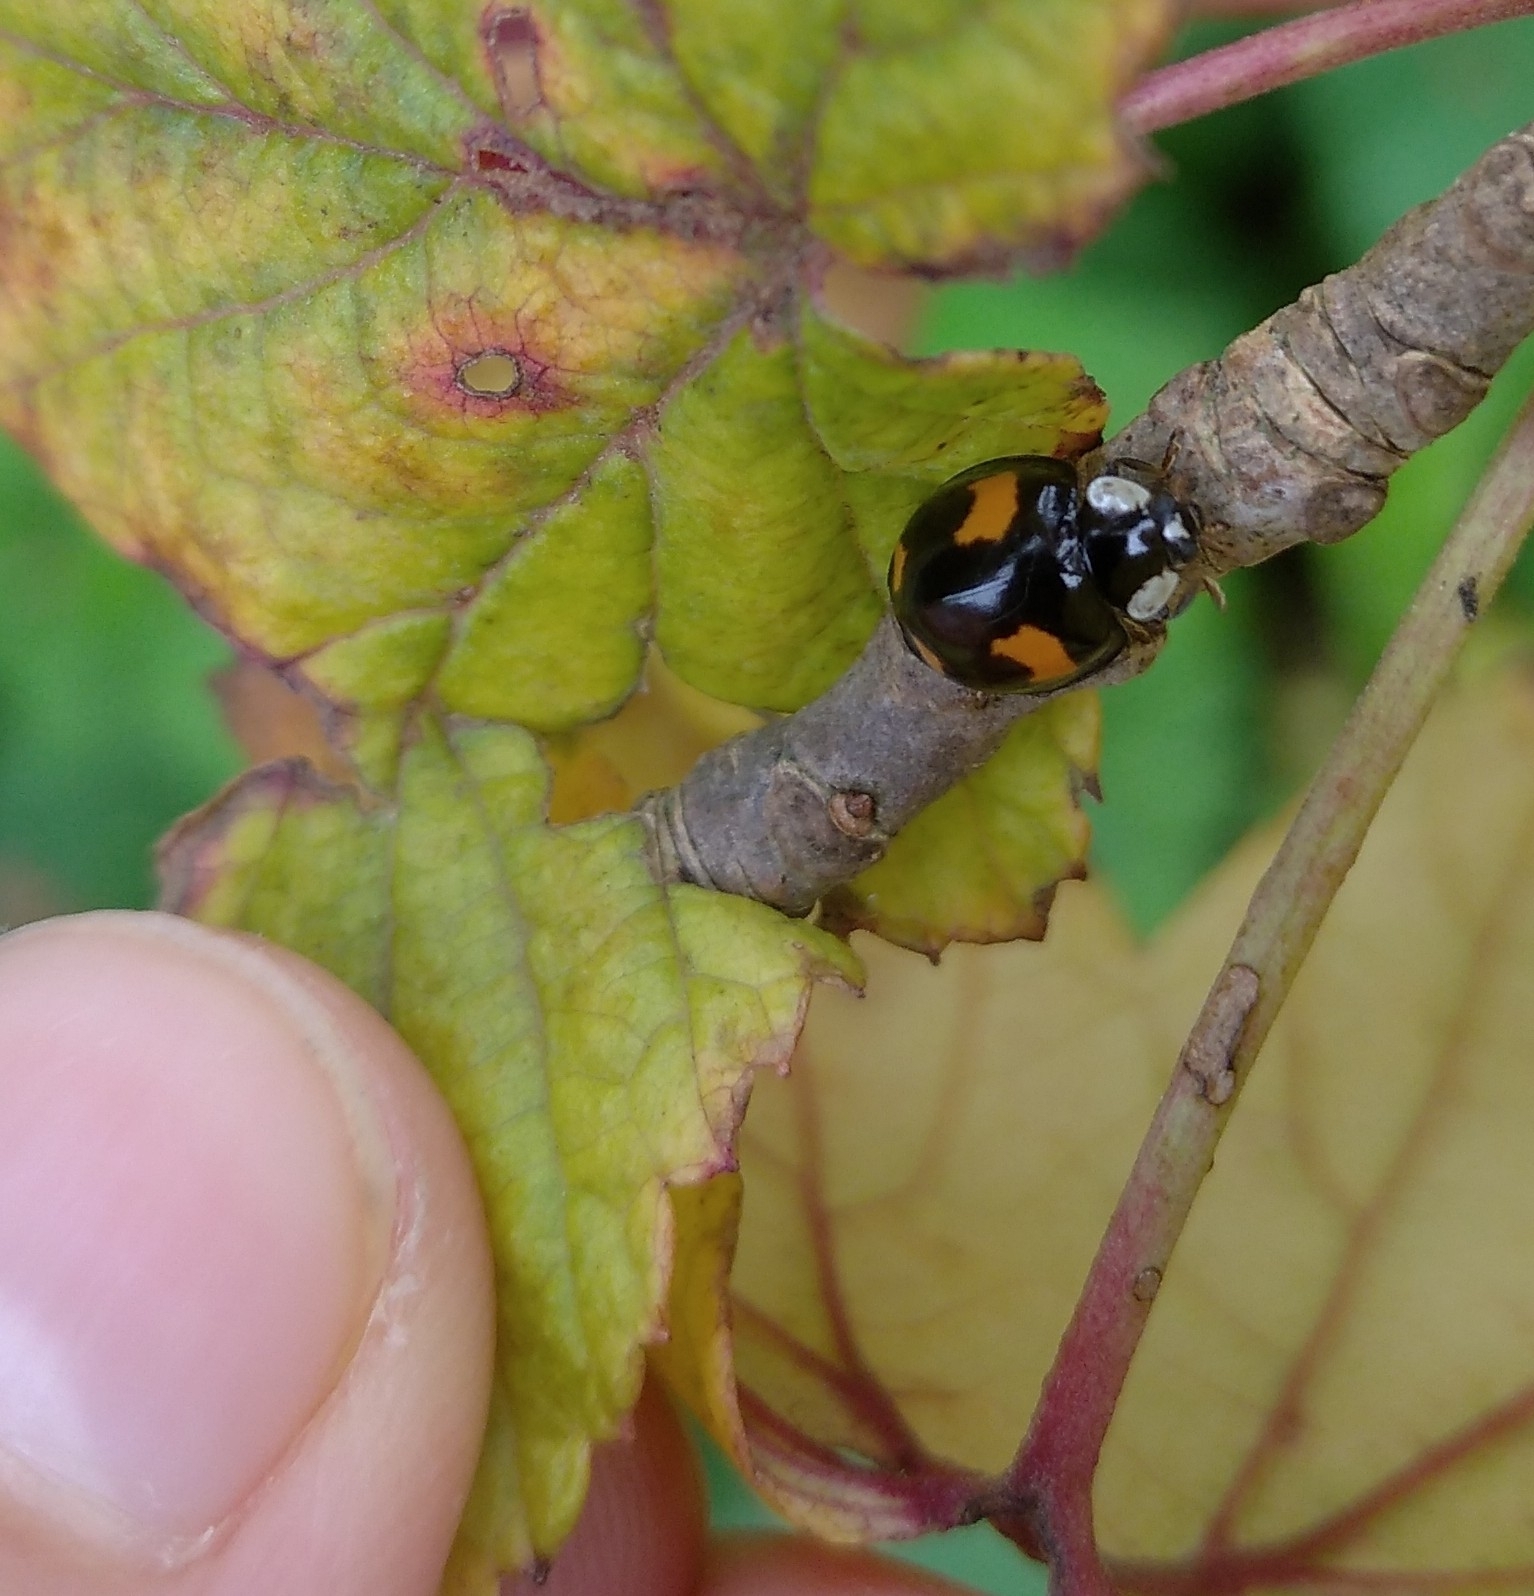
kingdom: Animalia
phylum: Arthropoda
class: Insecta
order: Coleoptera
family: Coccinellidae
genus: Harmonia
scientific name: Harmonia axyridis
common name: Harlequin ladybird
